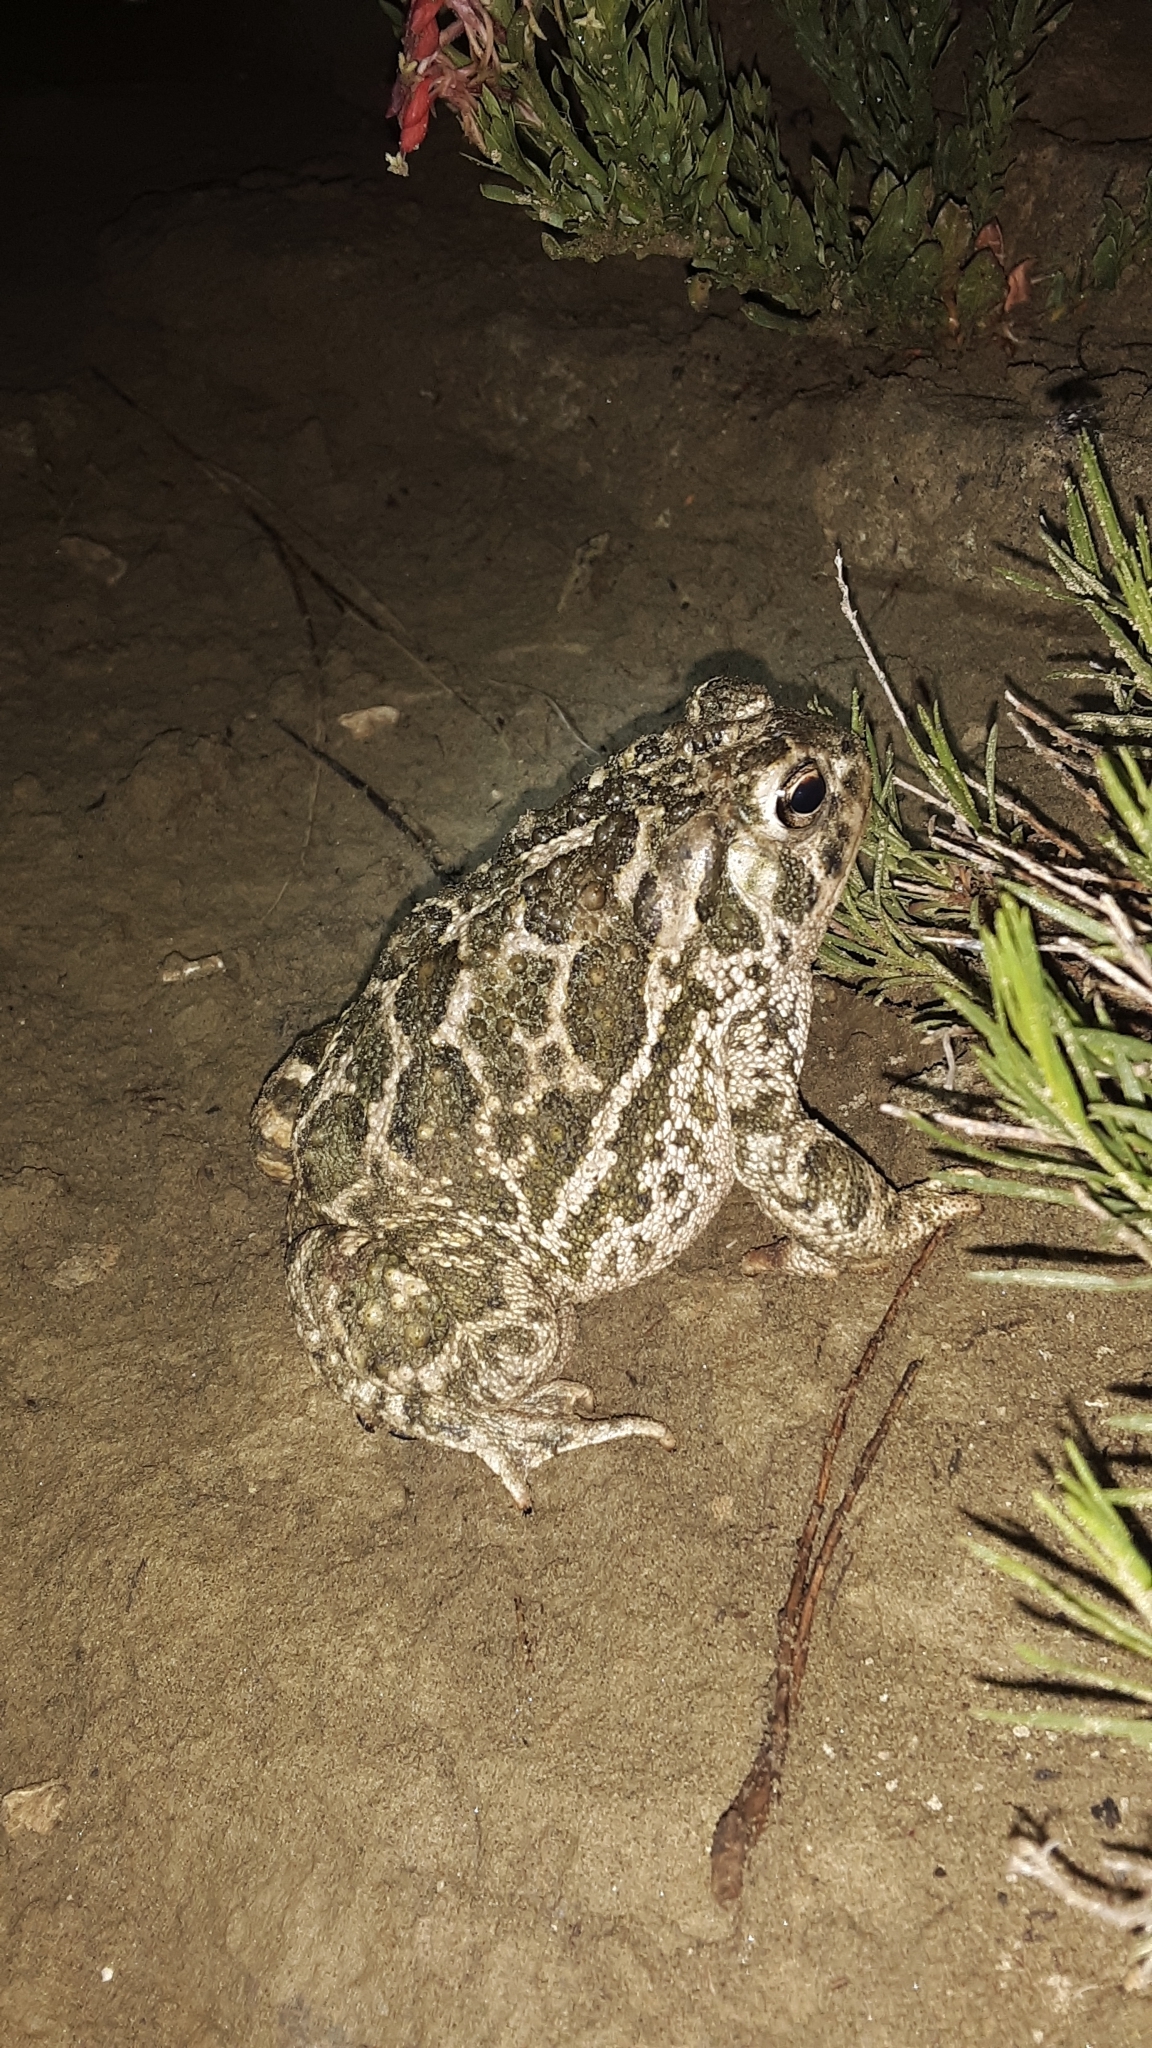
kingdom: Animalia
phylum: Chordata
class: Amphibia
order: Anura
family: Bufonidae
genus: Anaxyrus
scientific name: Anaxyrus cognatus
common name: Great plains toad
